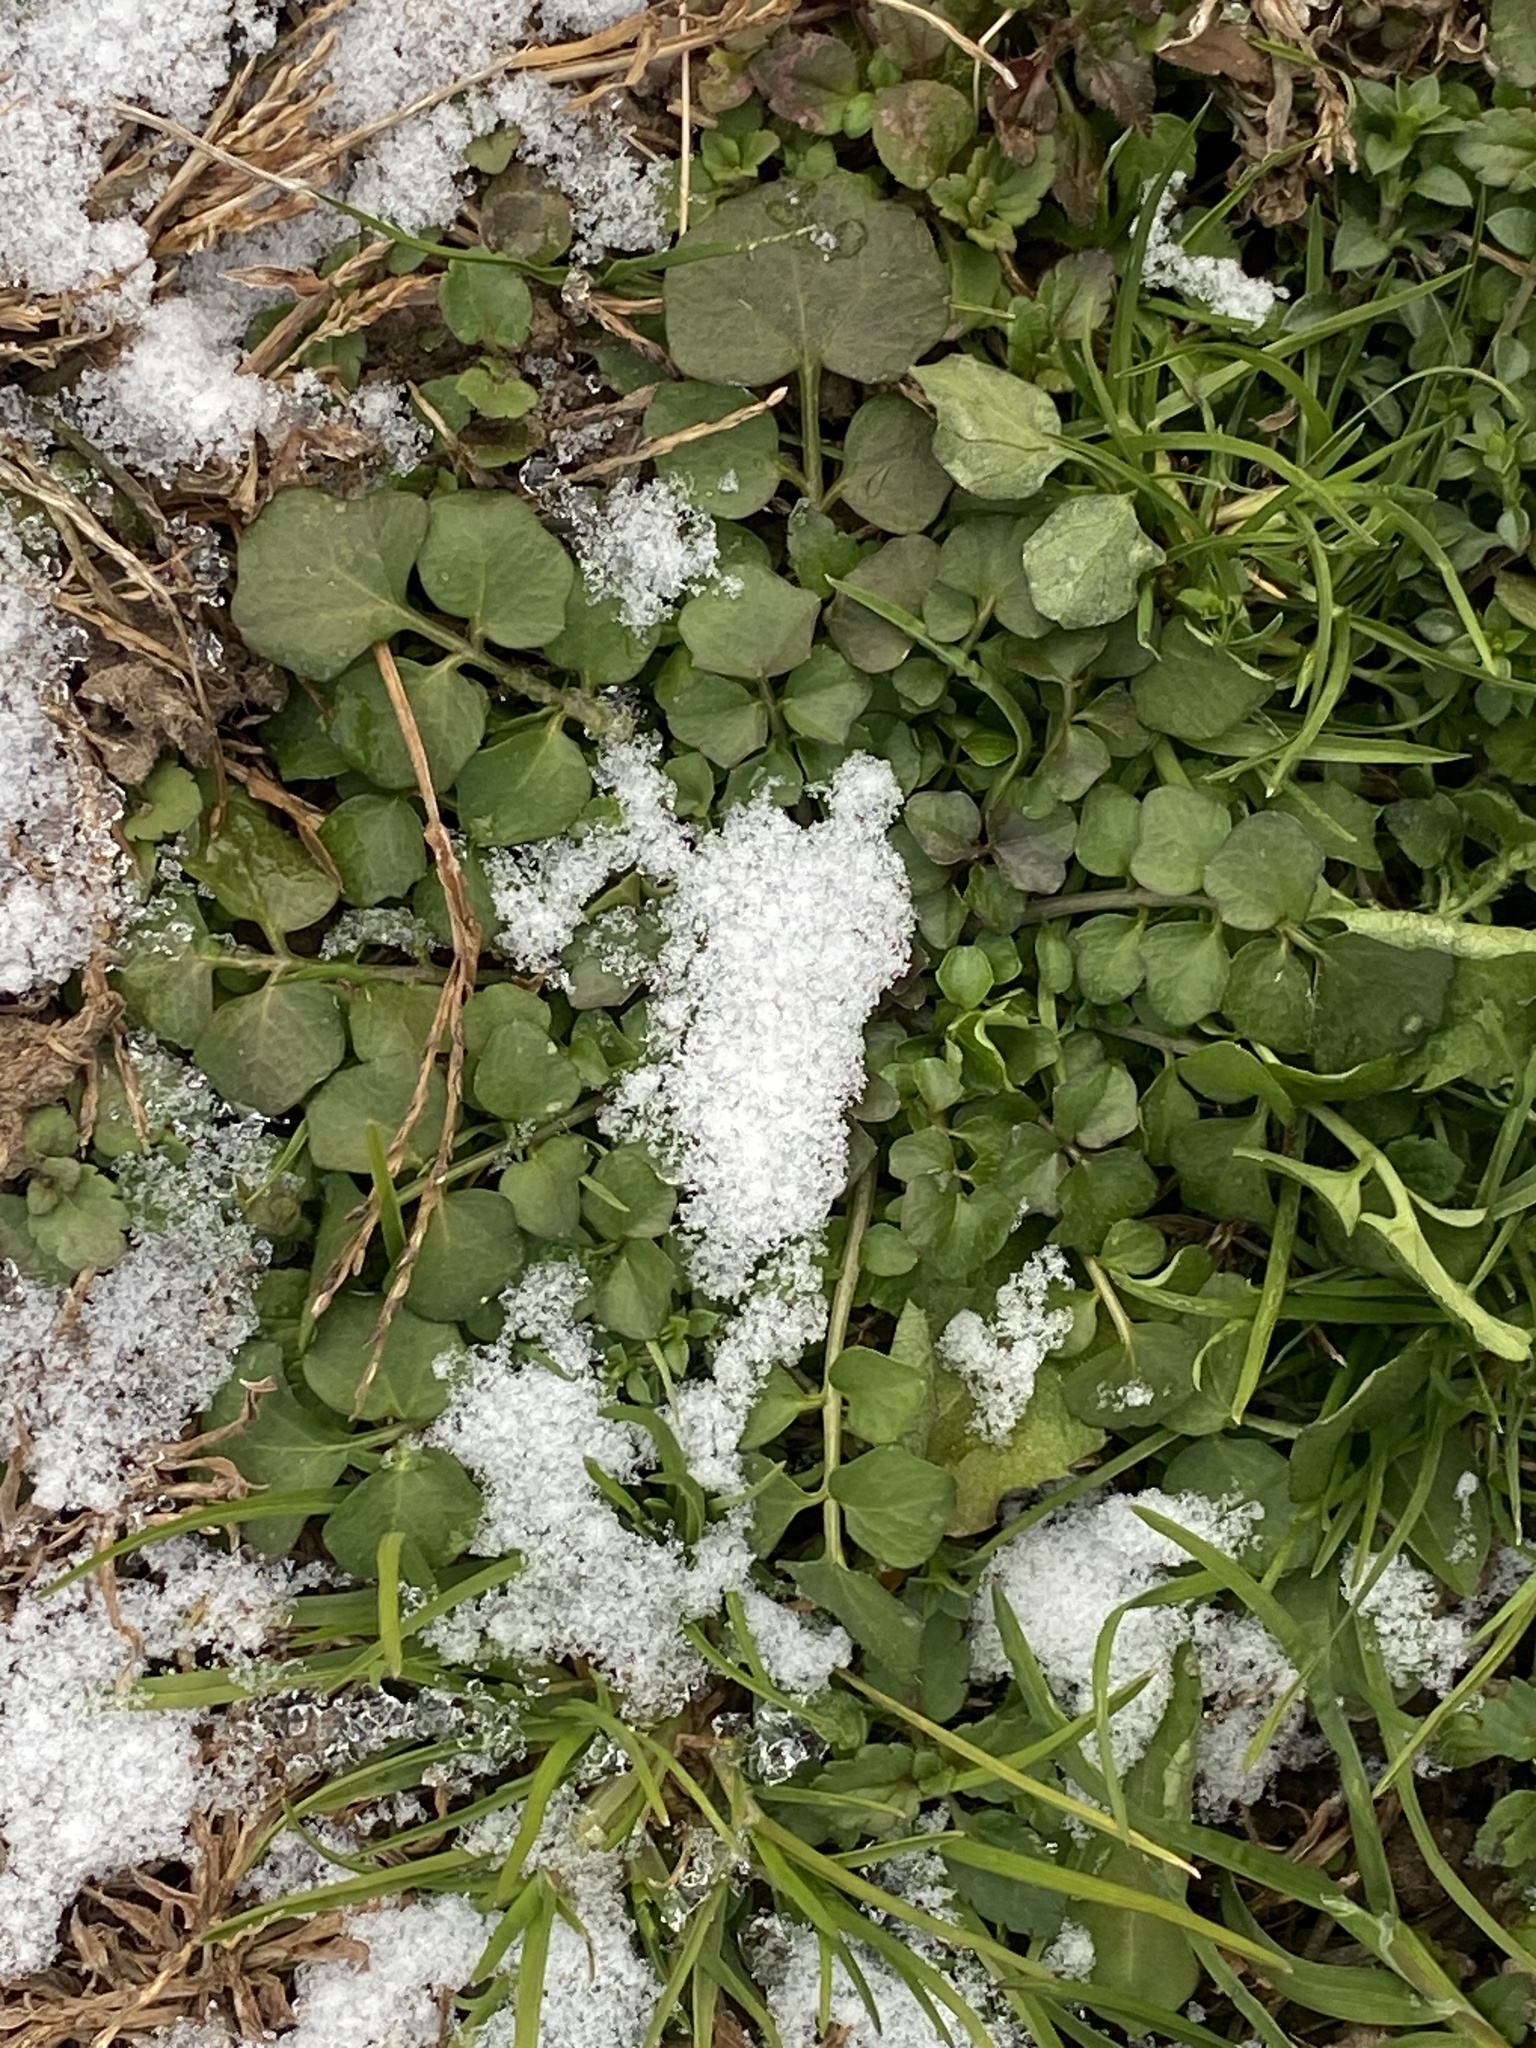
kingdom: Plantae
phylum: Tracheophyta
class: Magnoliopsida
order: Brassicales
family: Brassicaceae
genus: Cardamine
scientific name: Cardamine hirsuta
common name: Hairy bittercress
